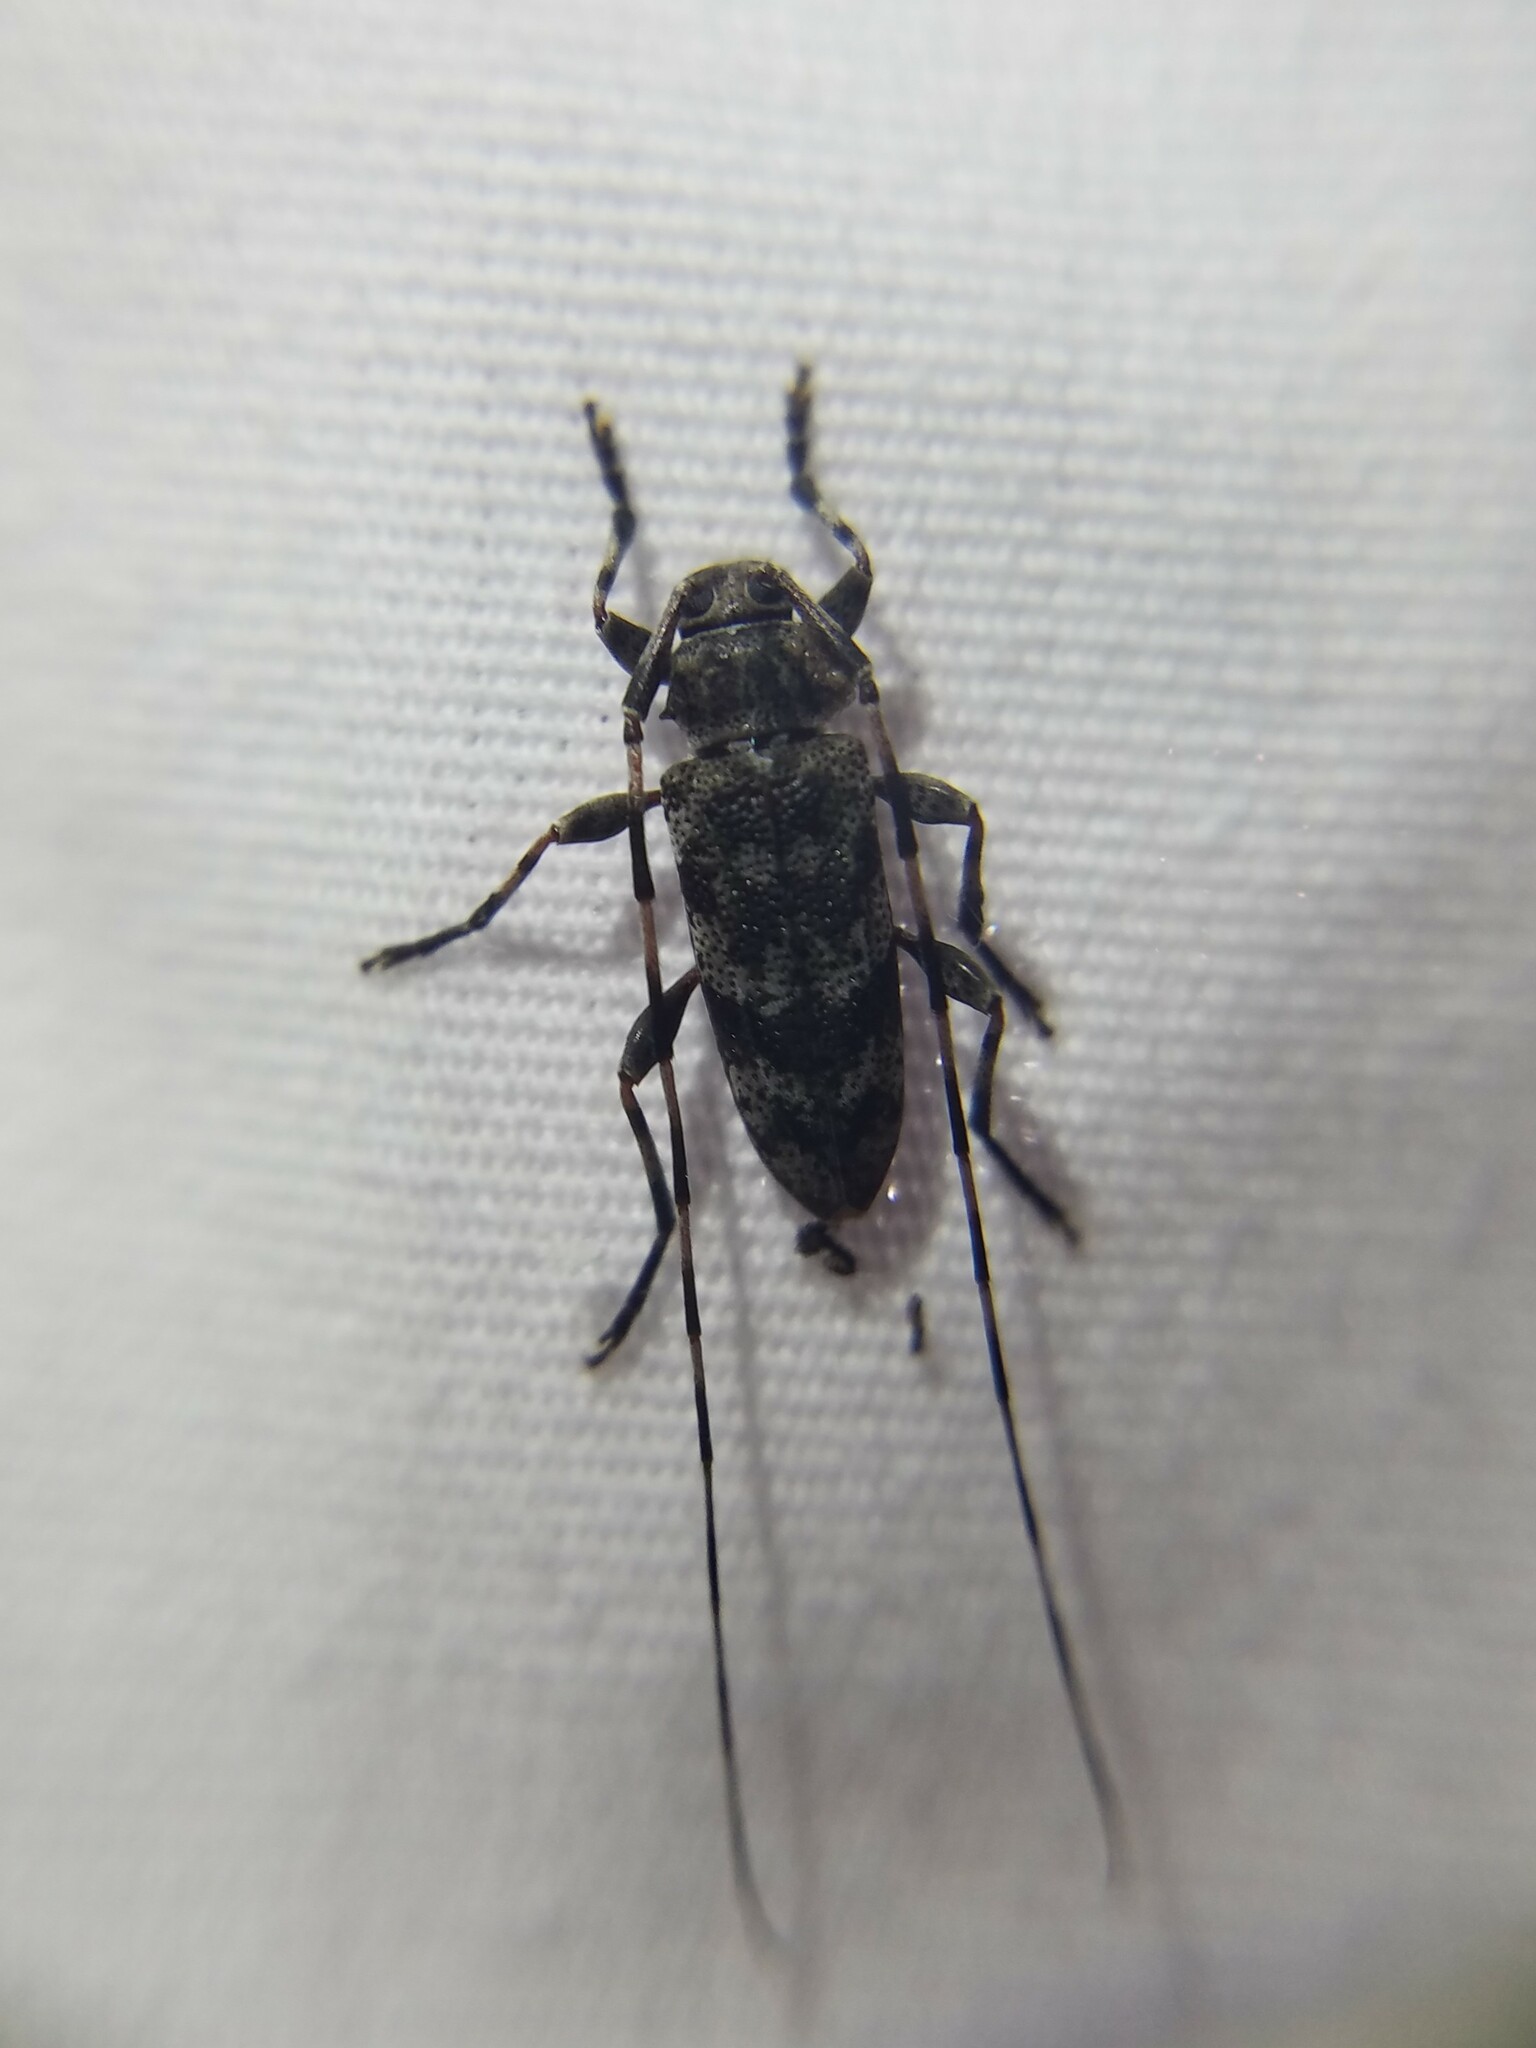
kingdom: Animalia
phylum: Arthropoda
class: Insecta
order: Coleoptera
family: Cerambycidae
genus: Acanthocinus
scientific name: Acanthocinus obsoletus
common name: Roundheaded borer
